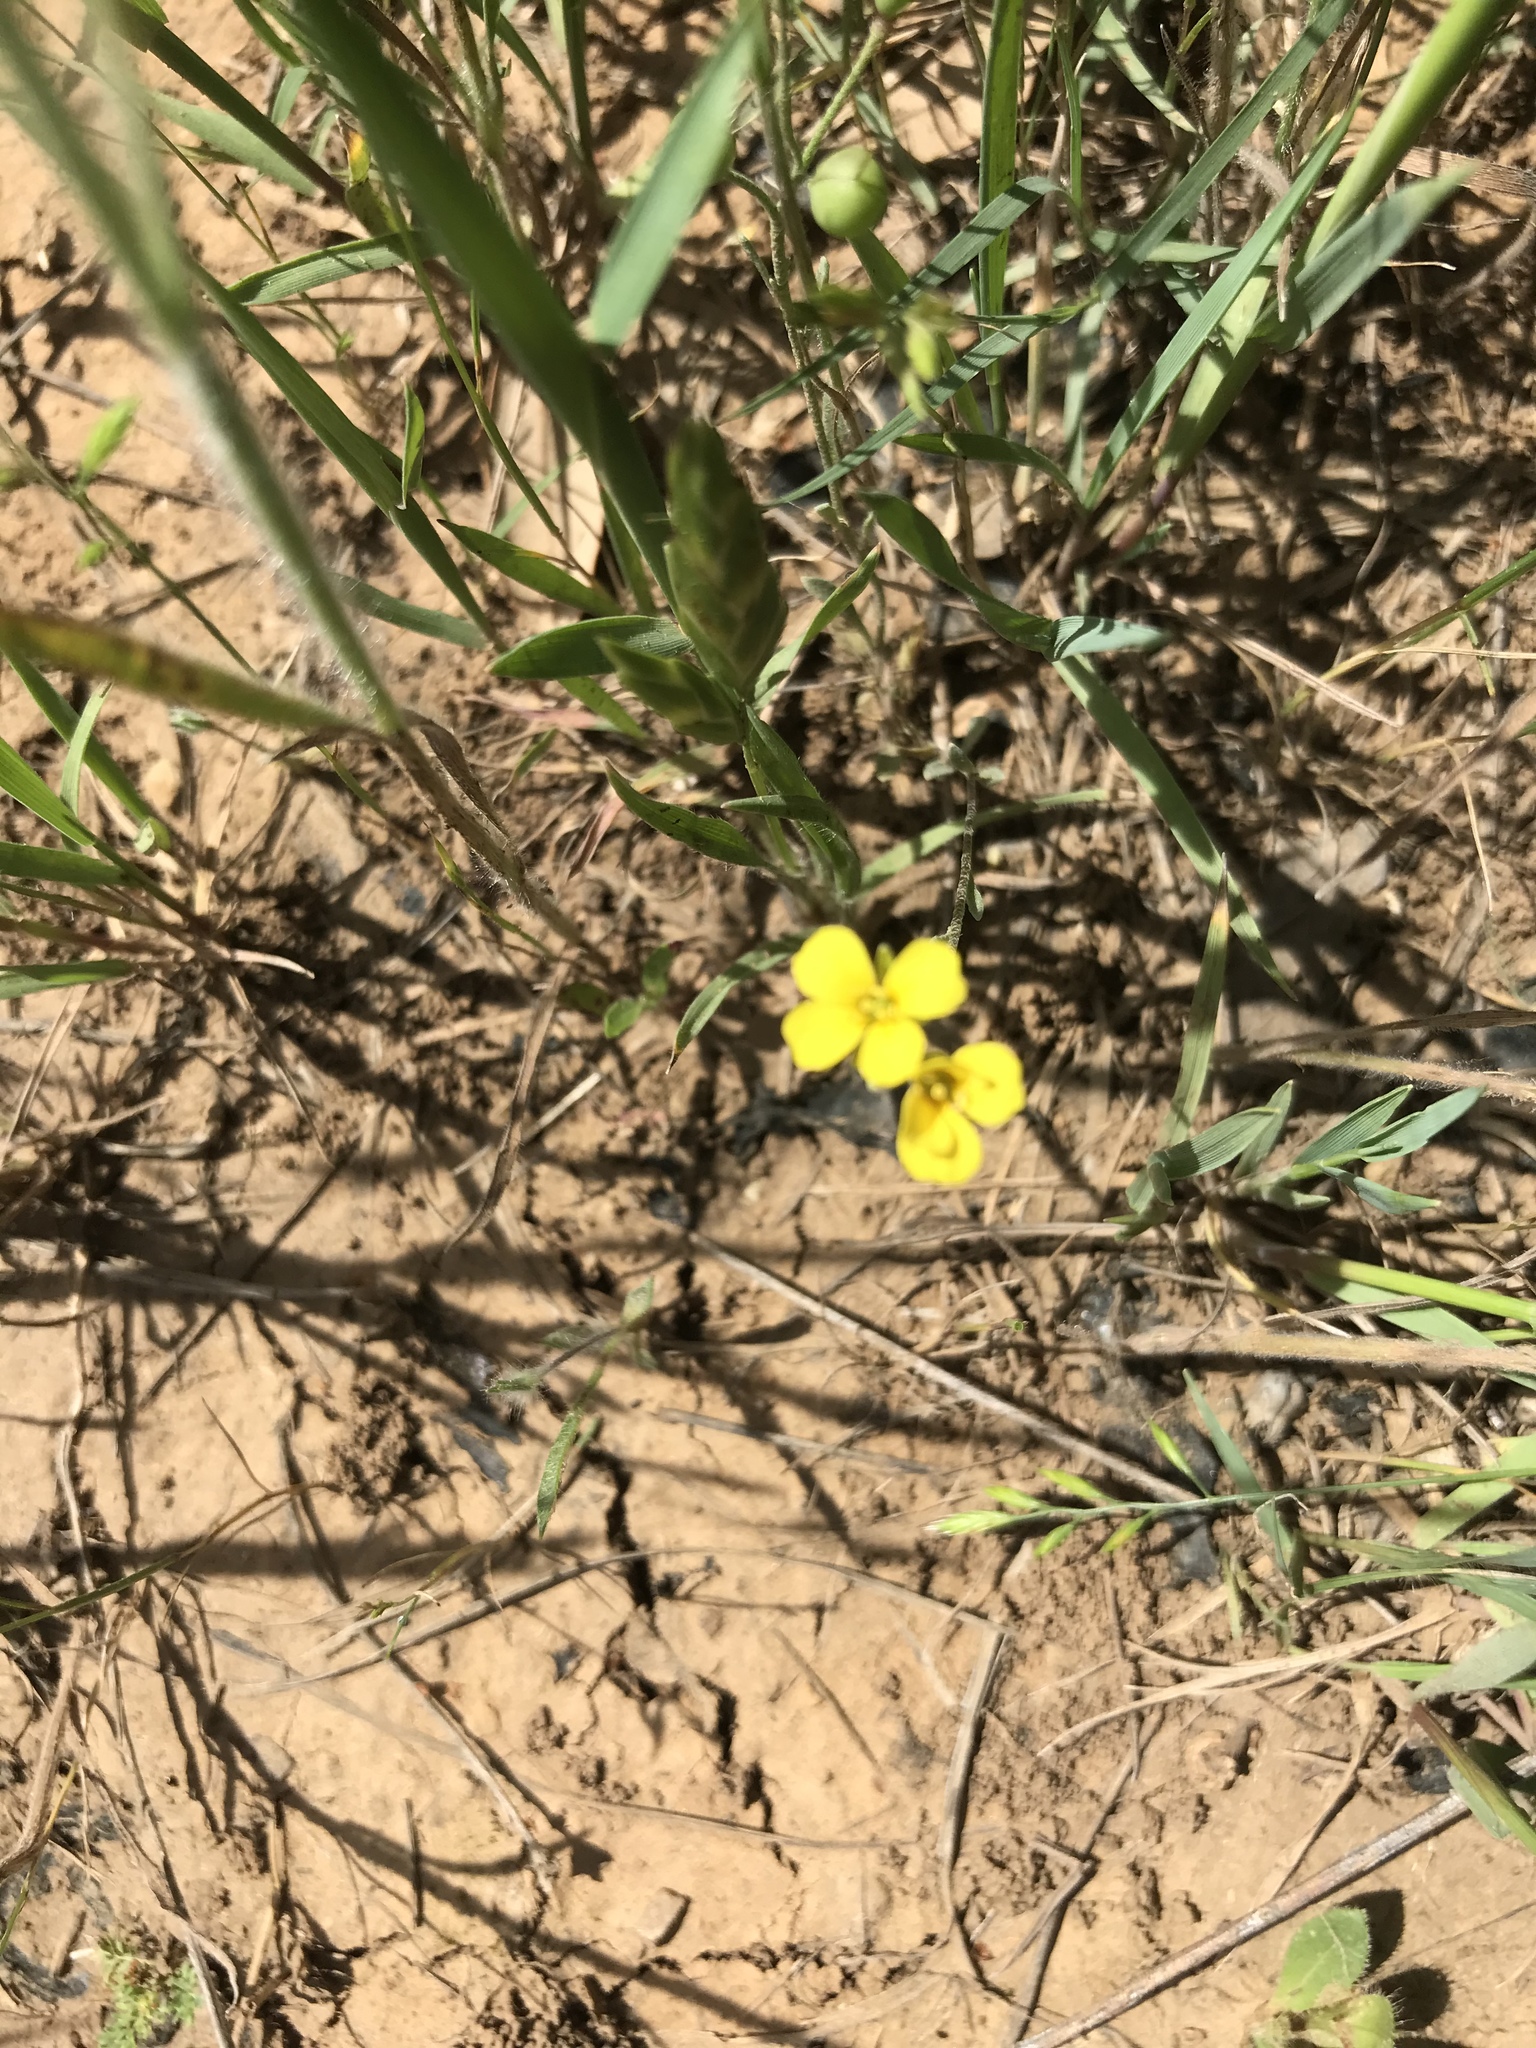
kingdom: Plantae
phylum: Tracheophyta
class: Magnoliopsida
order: Brassicales
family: Brassicaceae
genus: Physaria
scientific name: Physaria gracilis
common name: Spreading bladderpod
